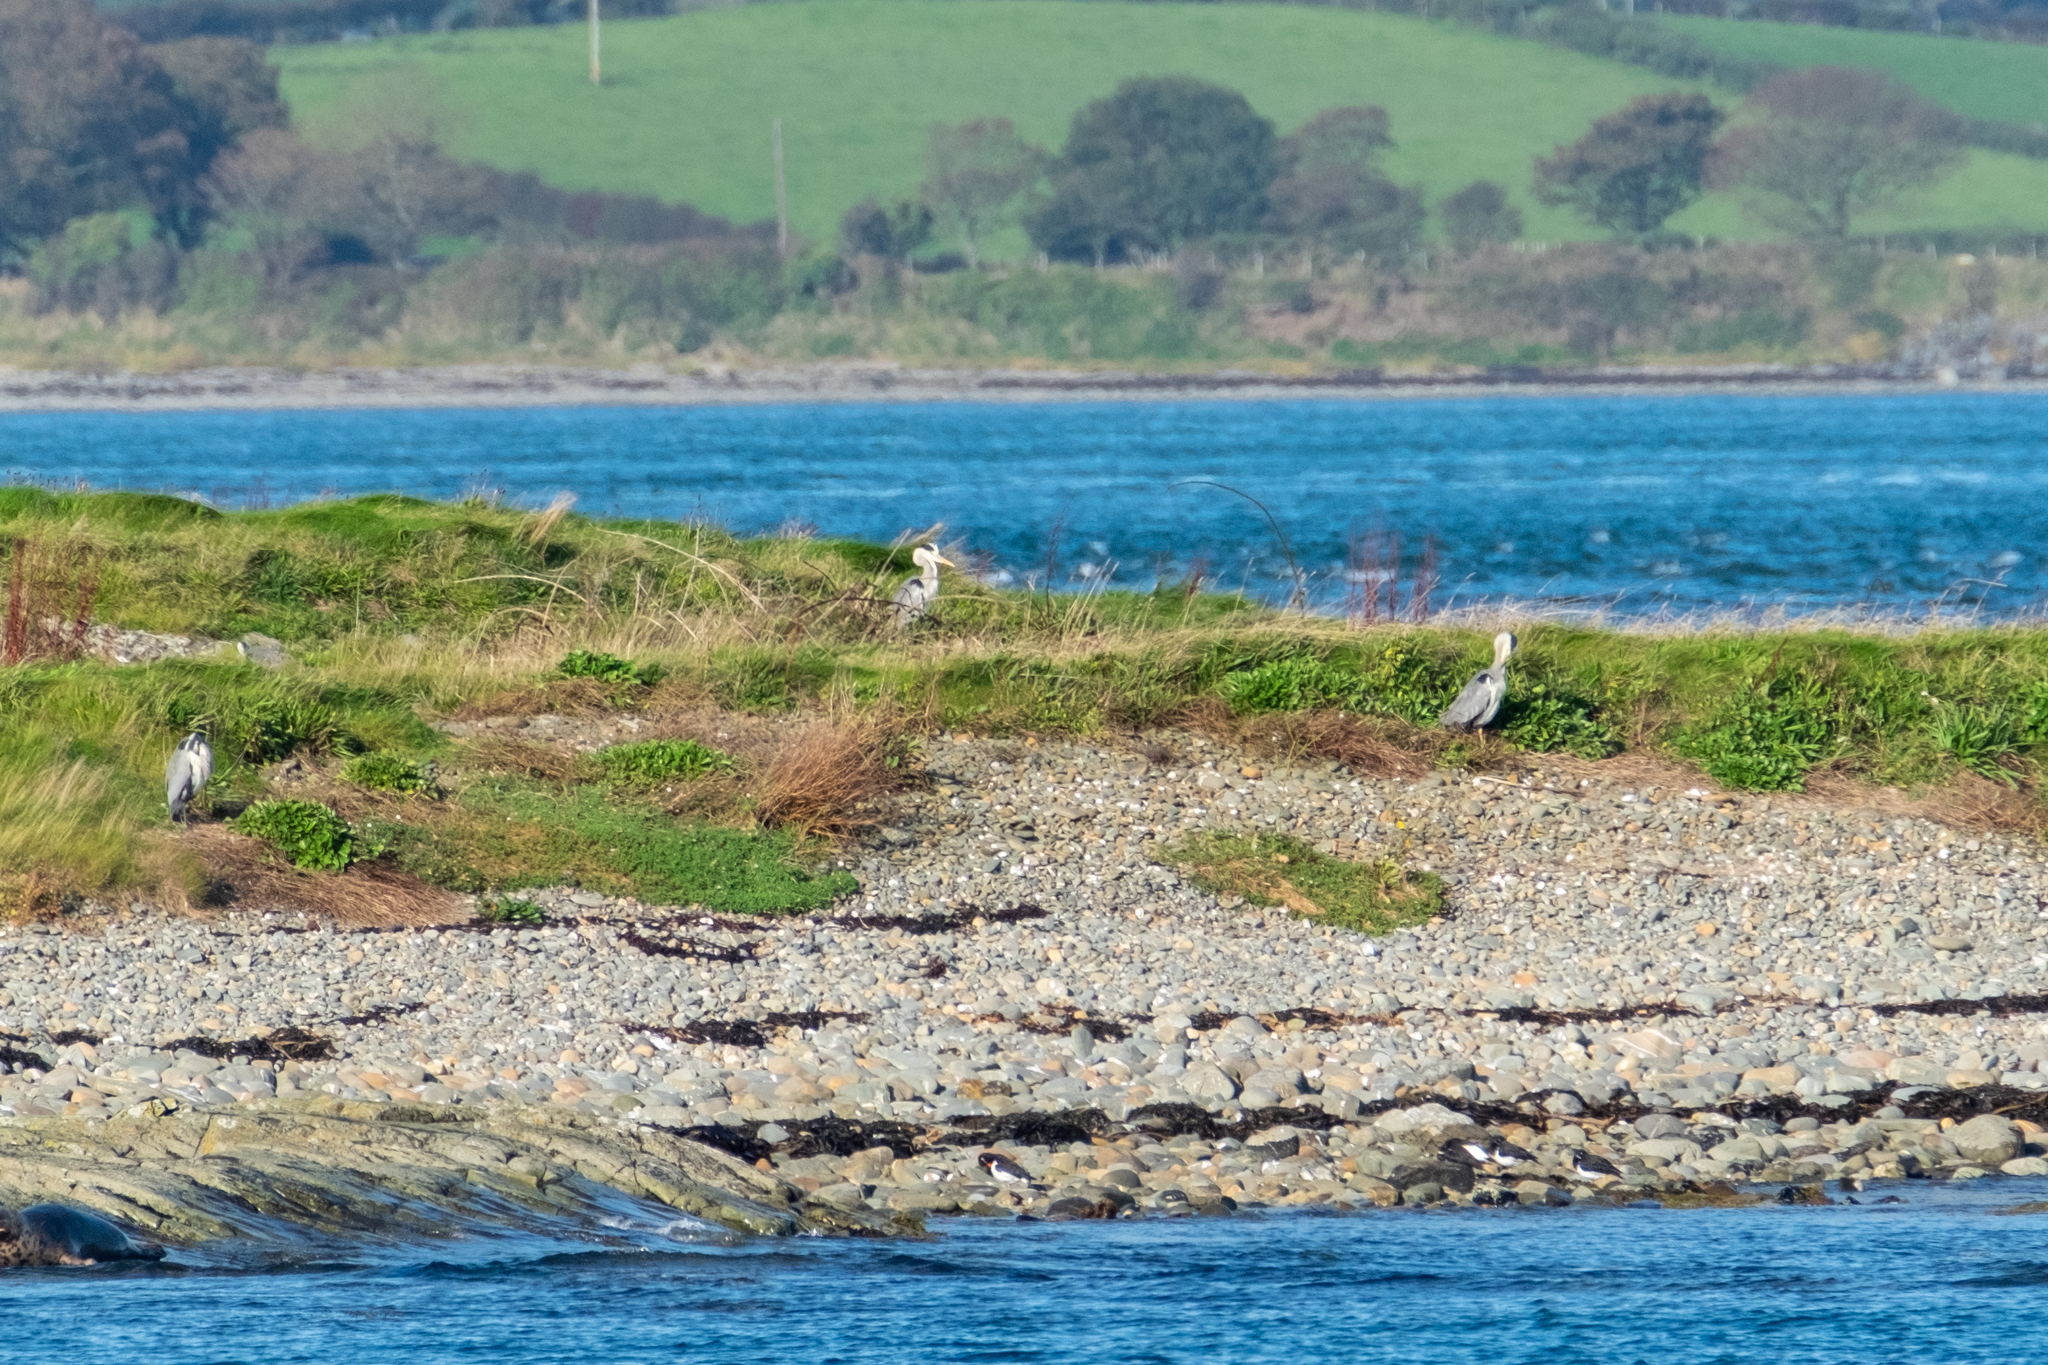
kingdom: Animalia
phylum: Chordata
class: Aves
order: Pelecaniformes
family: Ardeidae
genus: Ardea
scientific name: Ardea cinerea
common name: Grey heron
